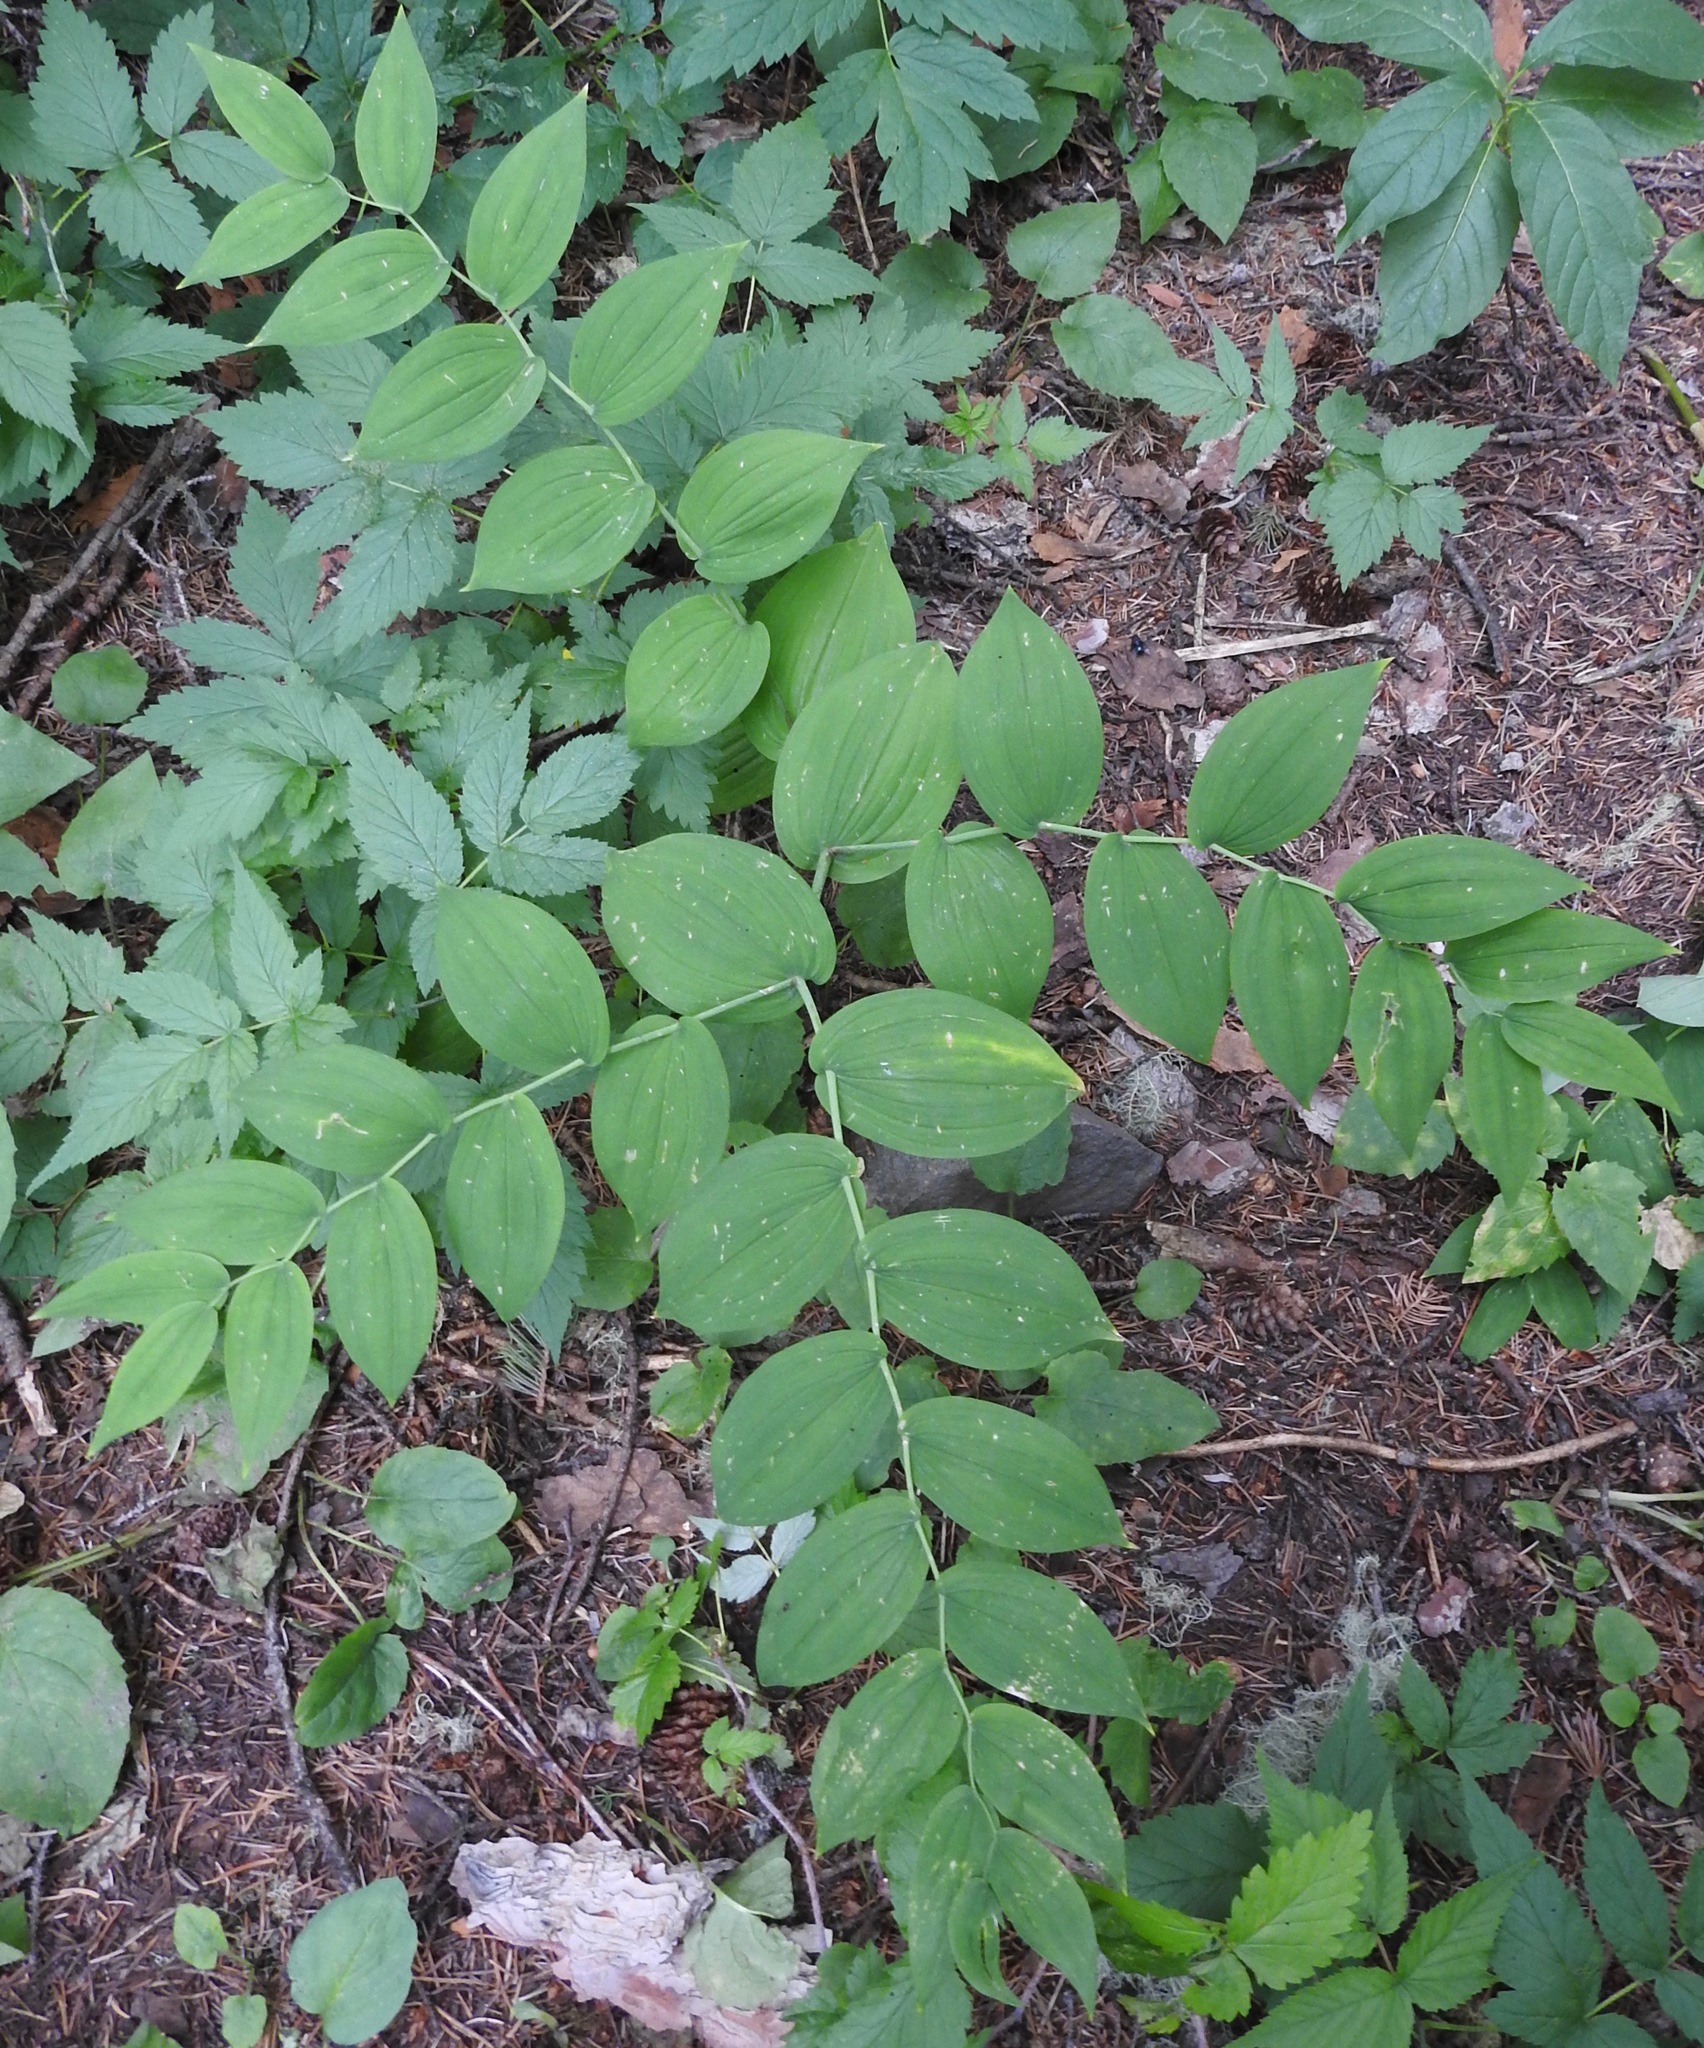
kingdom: Plantae
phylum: Tracheophyta
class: Liliopsida
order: Liliales
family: Liliaceae
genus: Streptopus
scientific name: Streptopus amplexifolius
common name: Clasp twisted stalk
